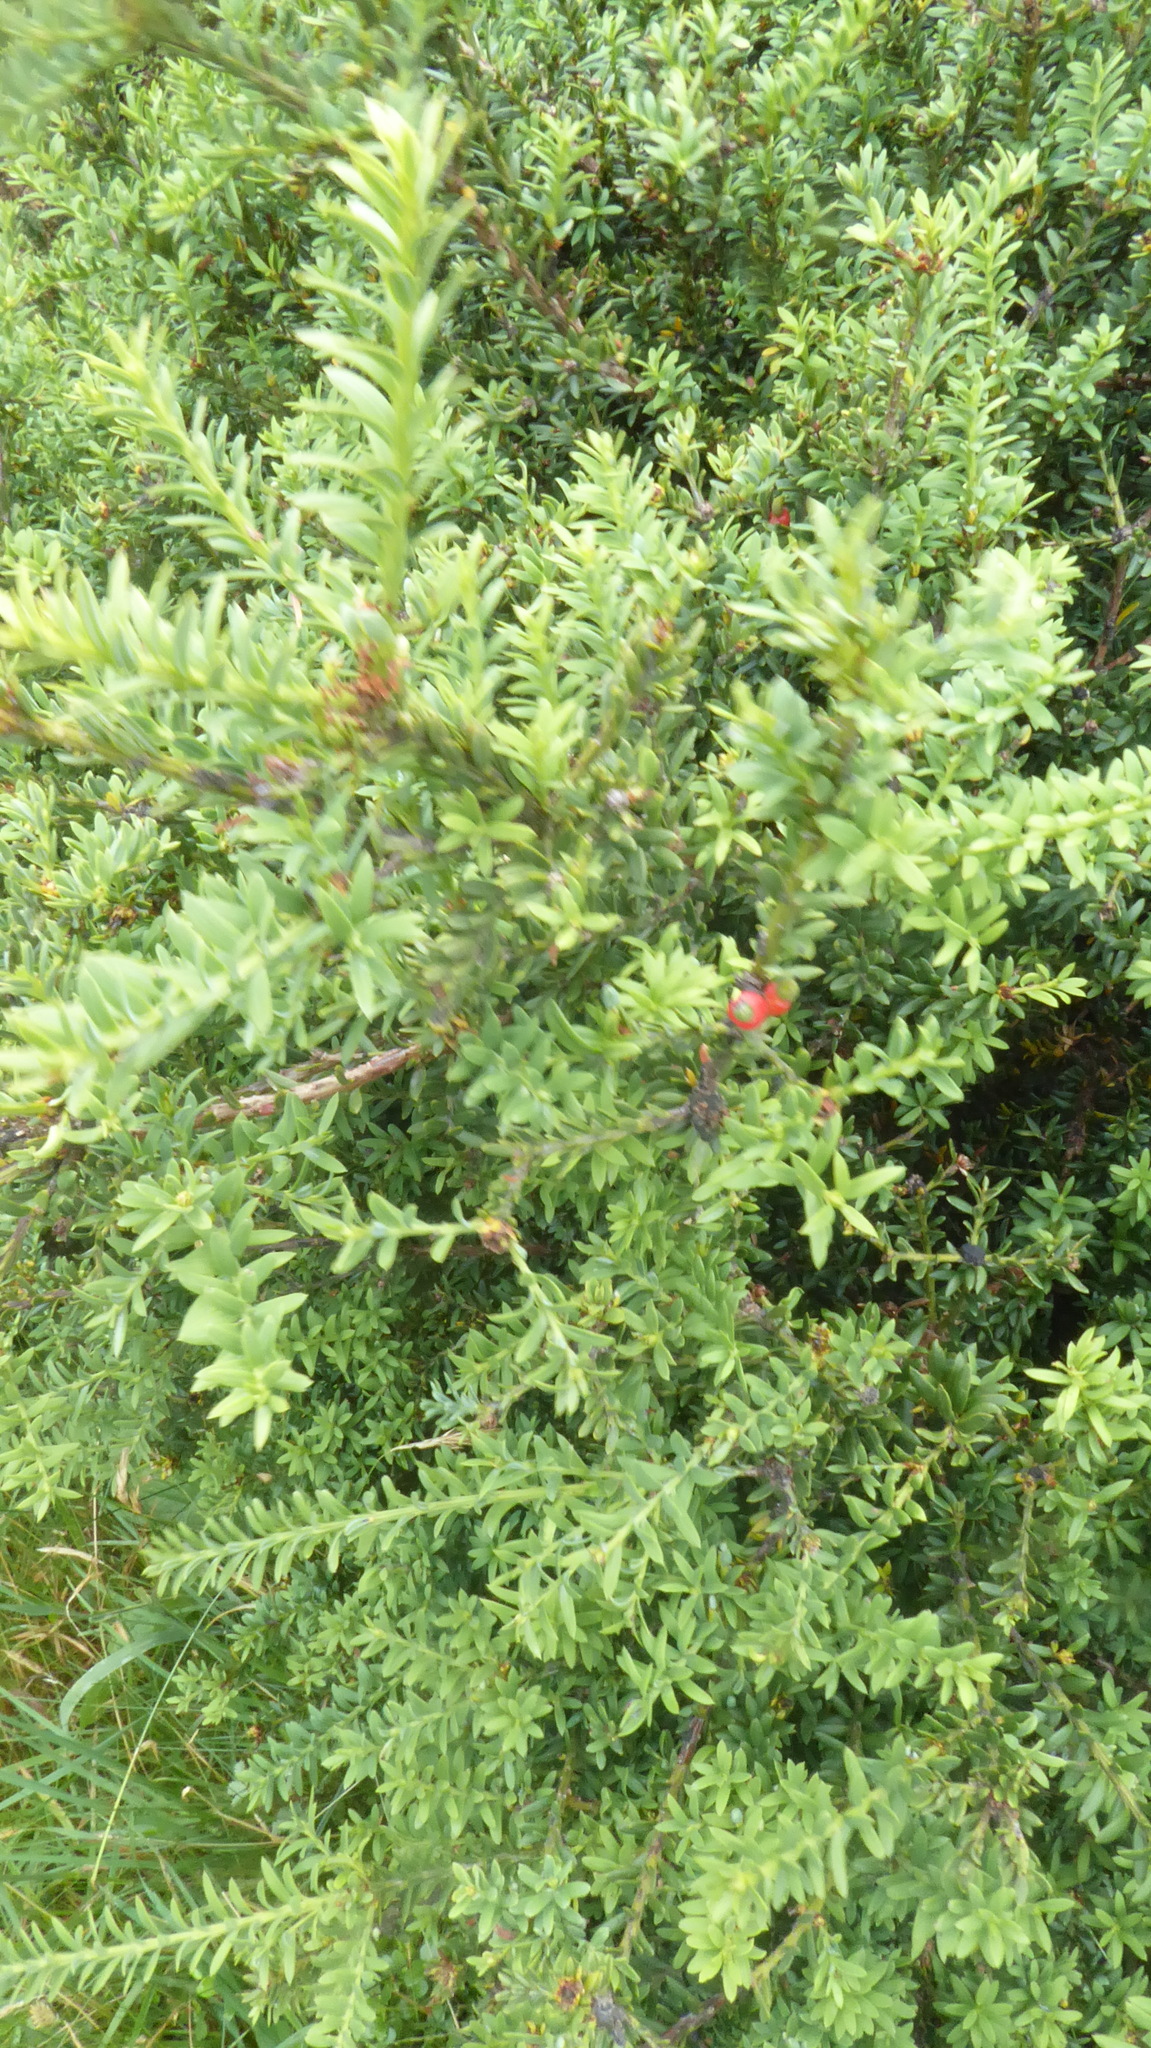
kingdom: Plantae
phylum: Tracheophyta
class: Pinopsida
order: Pinales
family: Podocarpaceae
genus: Podocarpus
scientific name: Podocarpus nivalis
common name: Alpine totara
